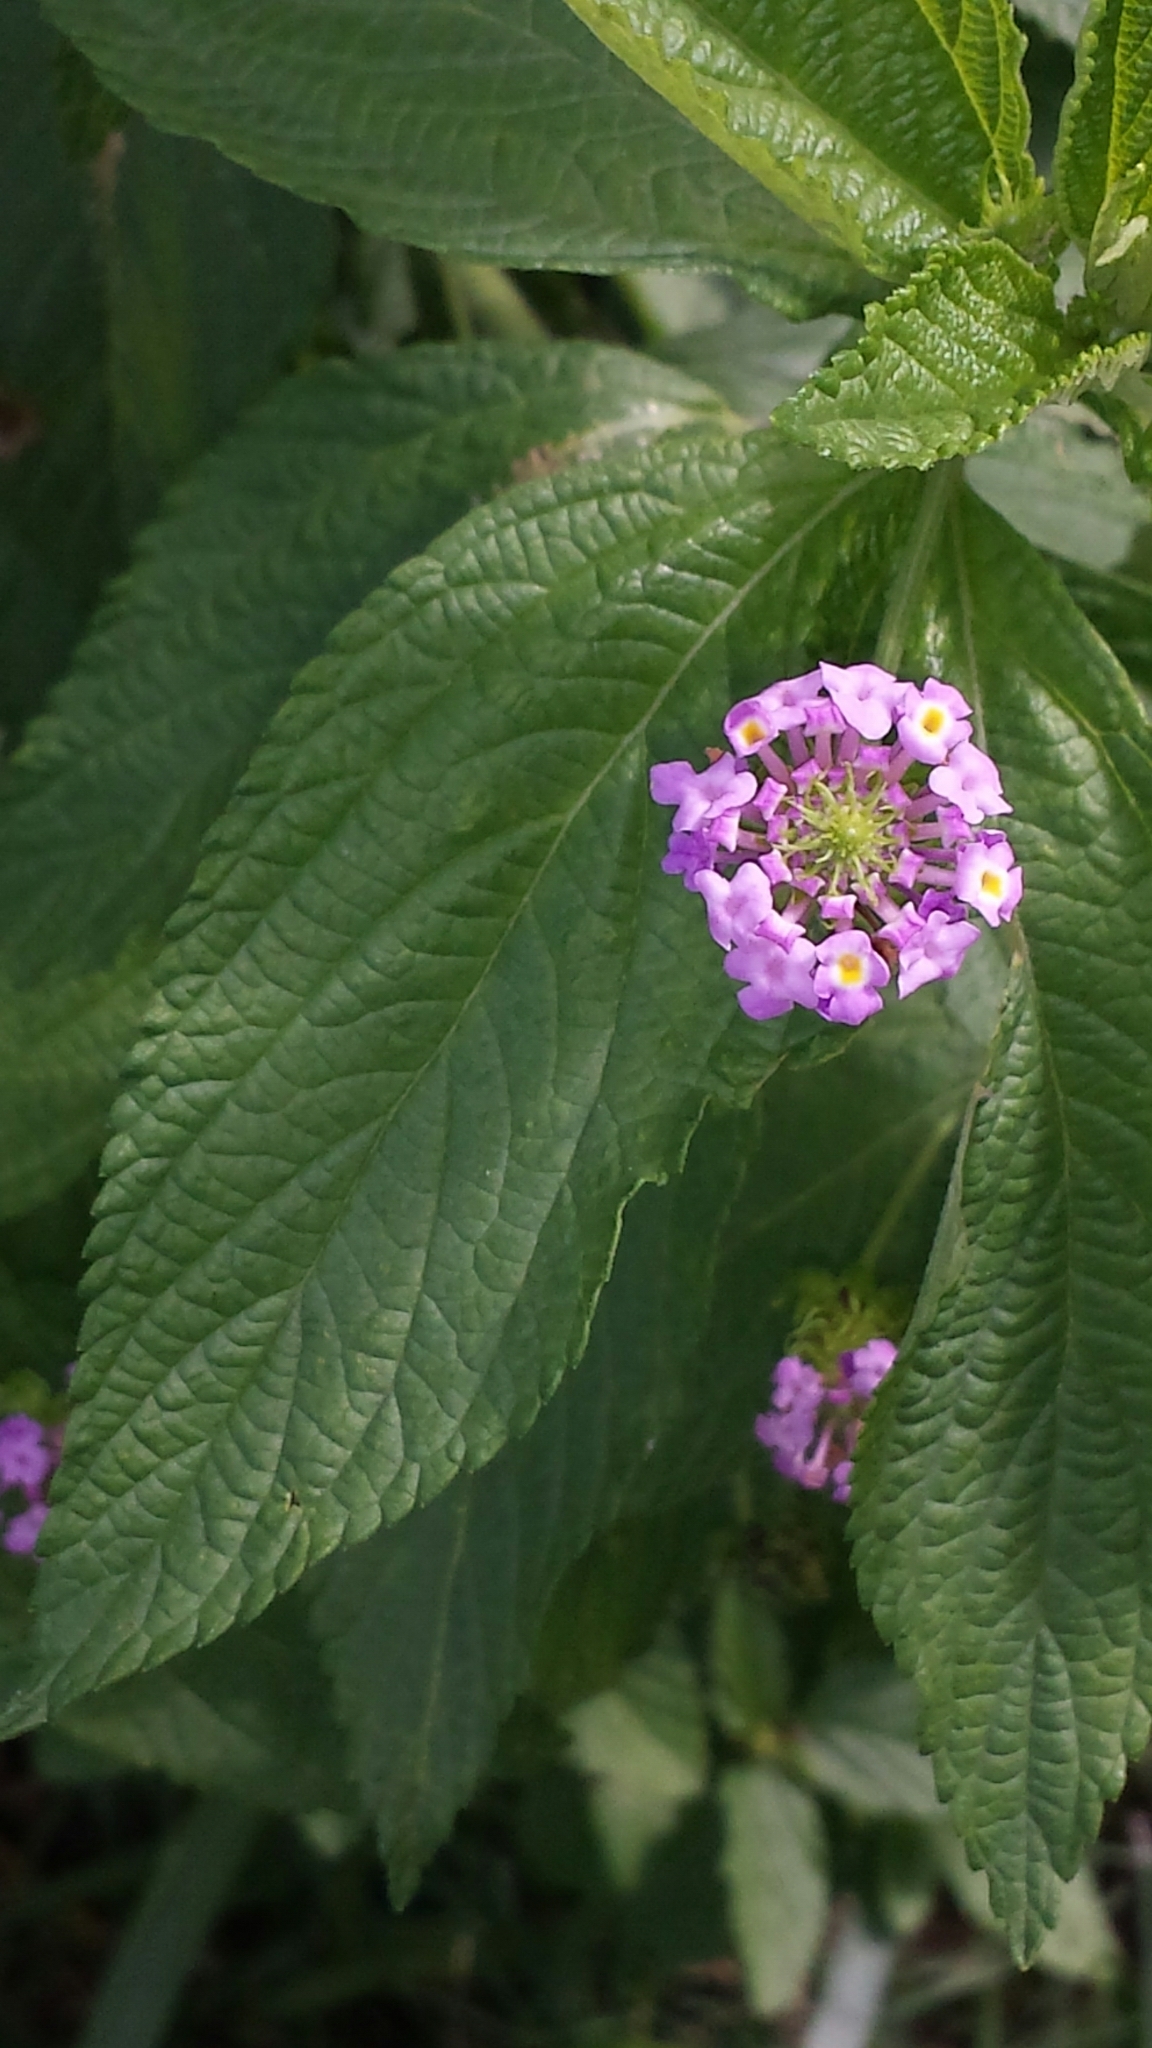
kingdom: Plantae
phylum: Tracheophyta
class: Magnoliopsida
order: Lamiales
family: Verbenaceae
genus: Lantana
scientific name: Lantana camara
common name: Lantana
